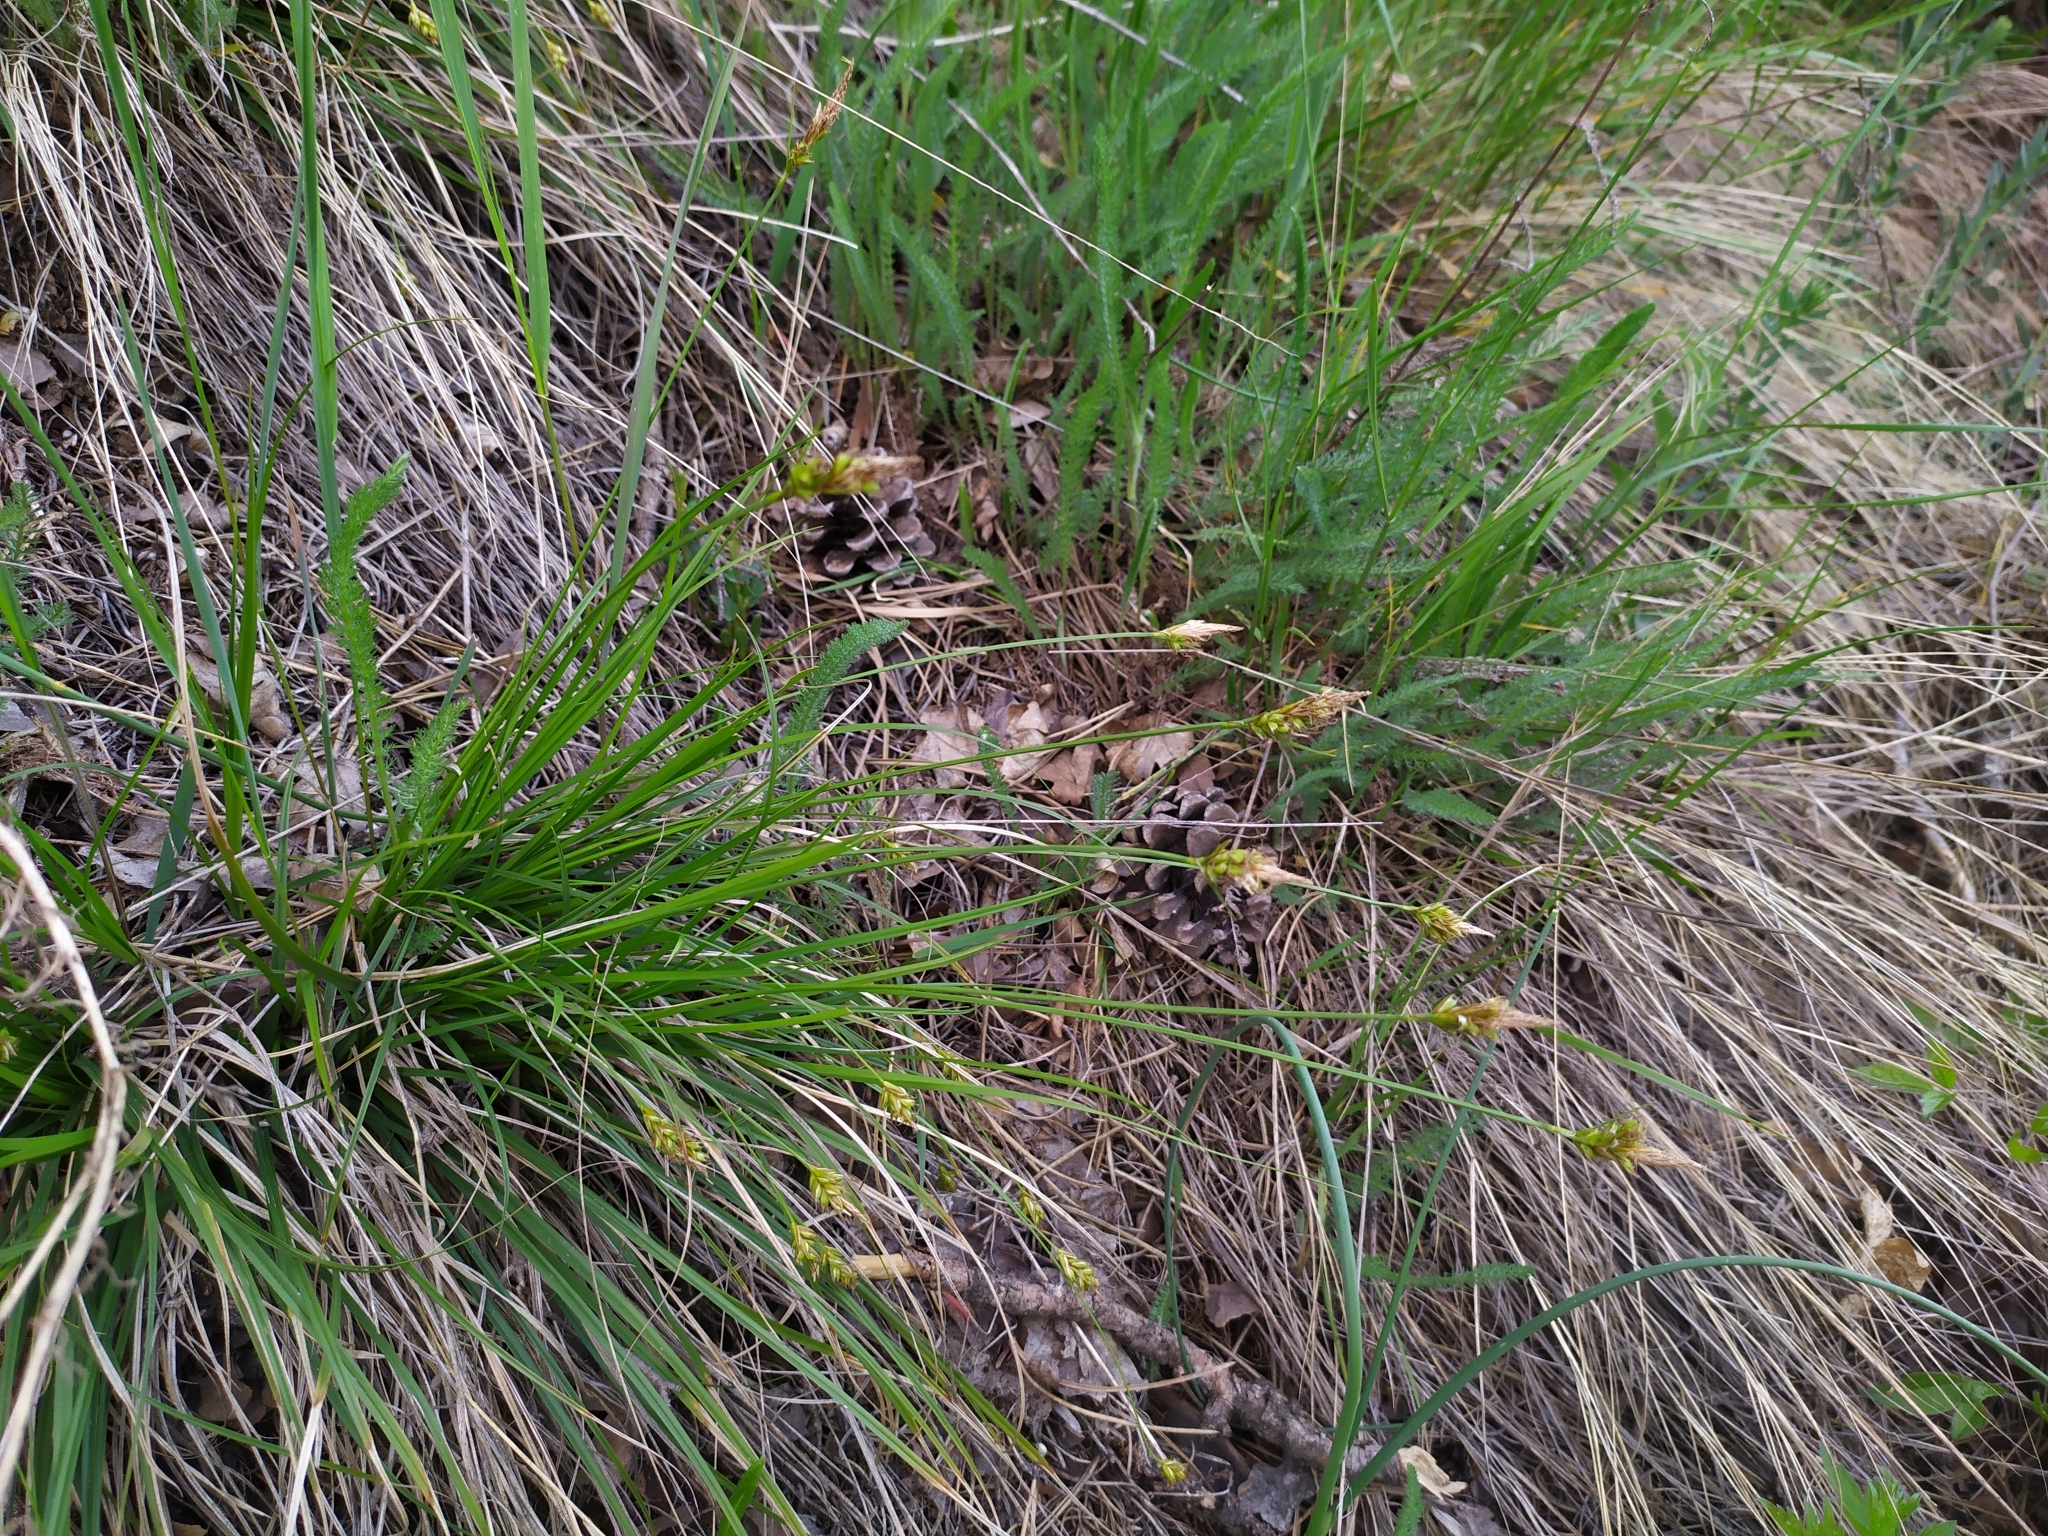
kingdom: Plantae
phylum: Tracheophyta
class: Liliopsida
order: Poales
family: Cyperaceae
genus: Carex
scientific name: Carex halleriana
